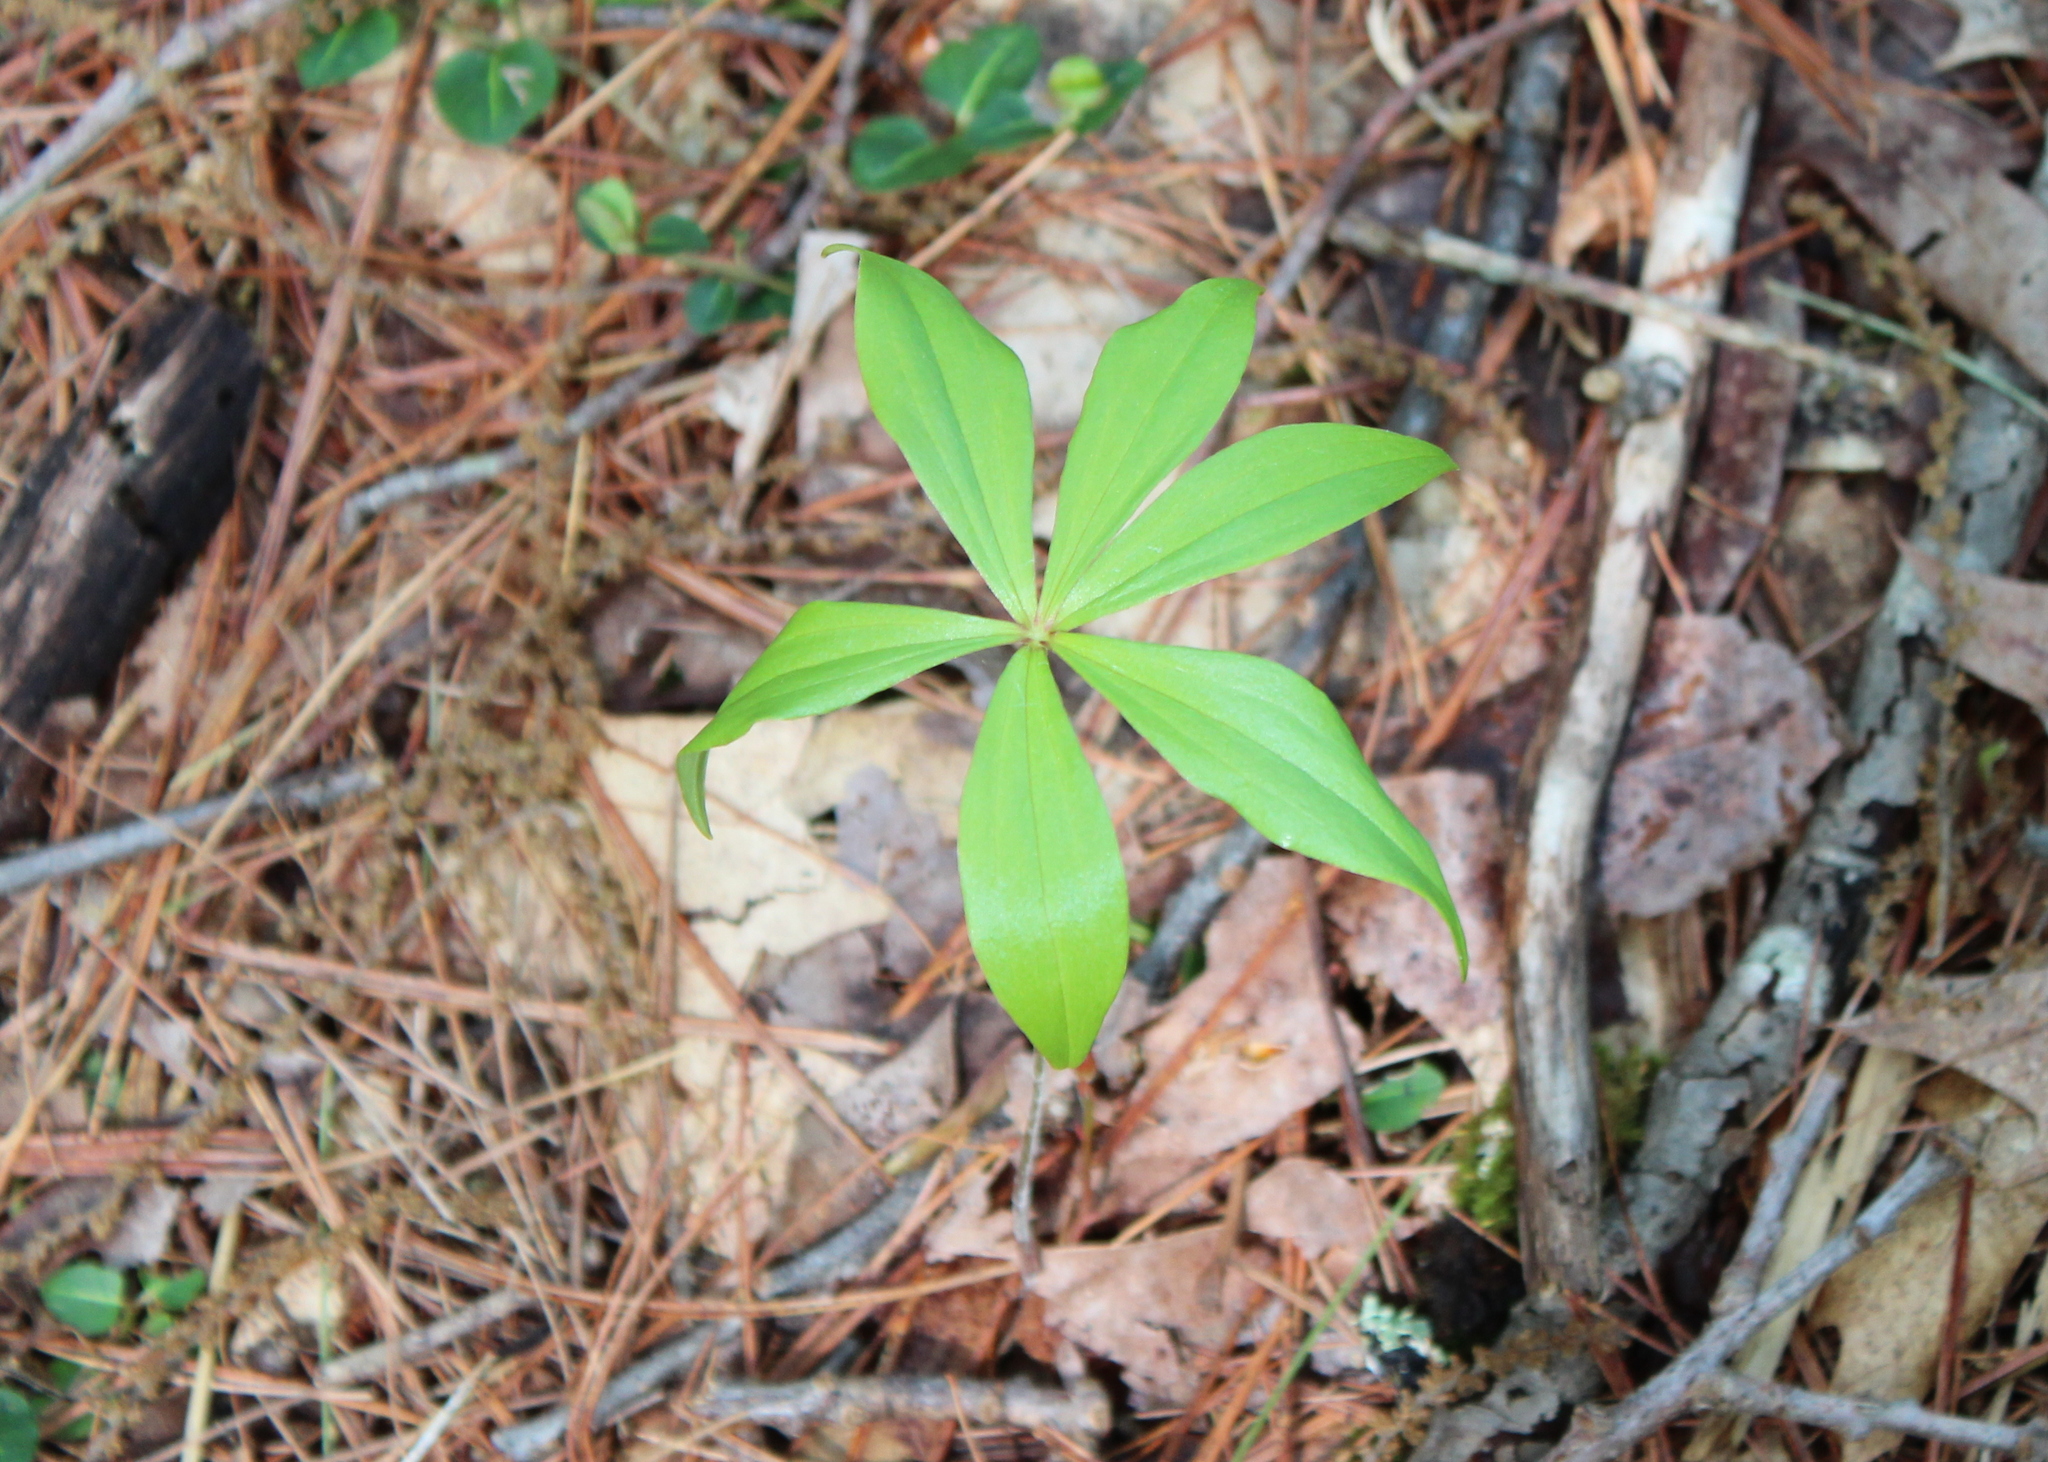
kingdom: Plantae
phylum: Tracheophyta
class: Liliopsida
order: Liliales
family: Liliaceae
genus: Medeola
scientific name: Medeola virginiana
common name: Indian cucumber-root
